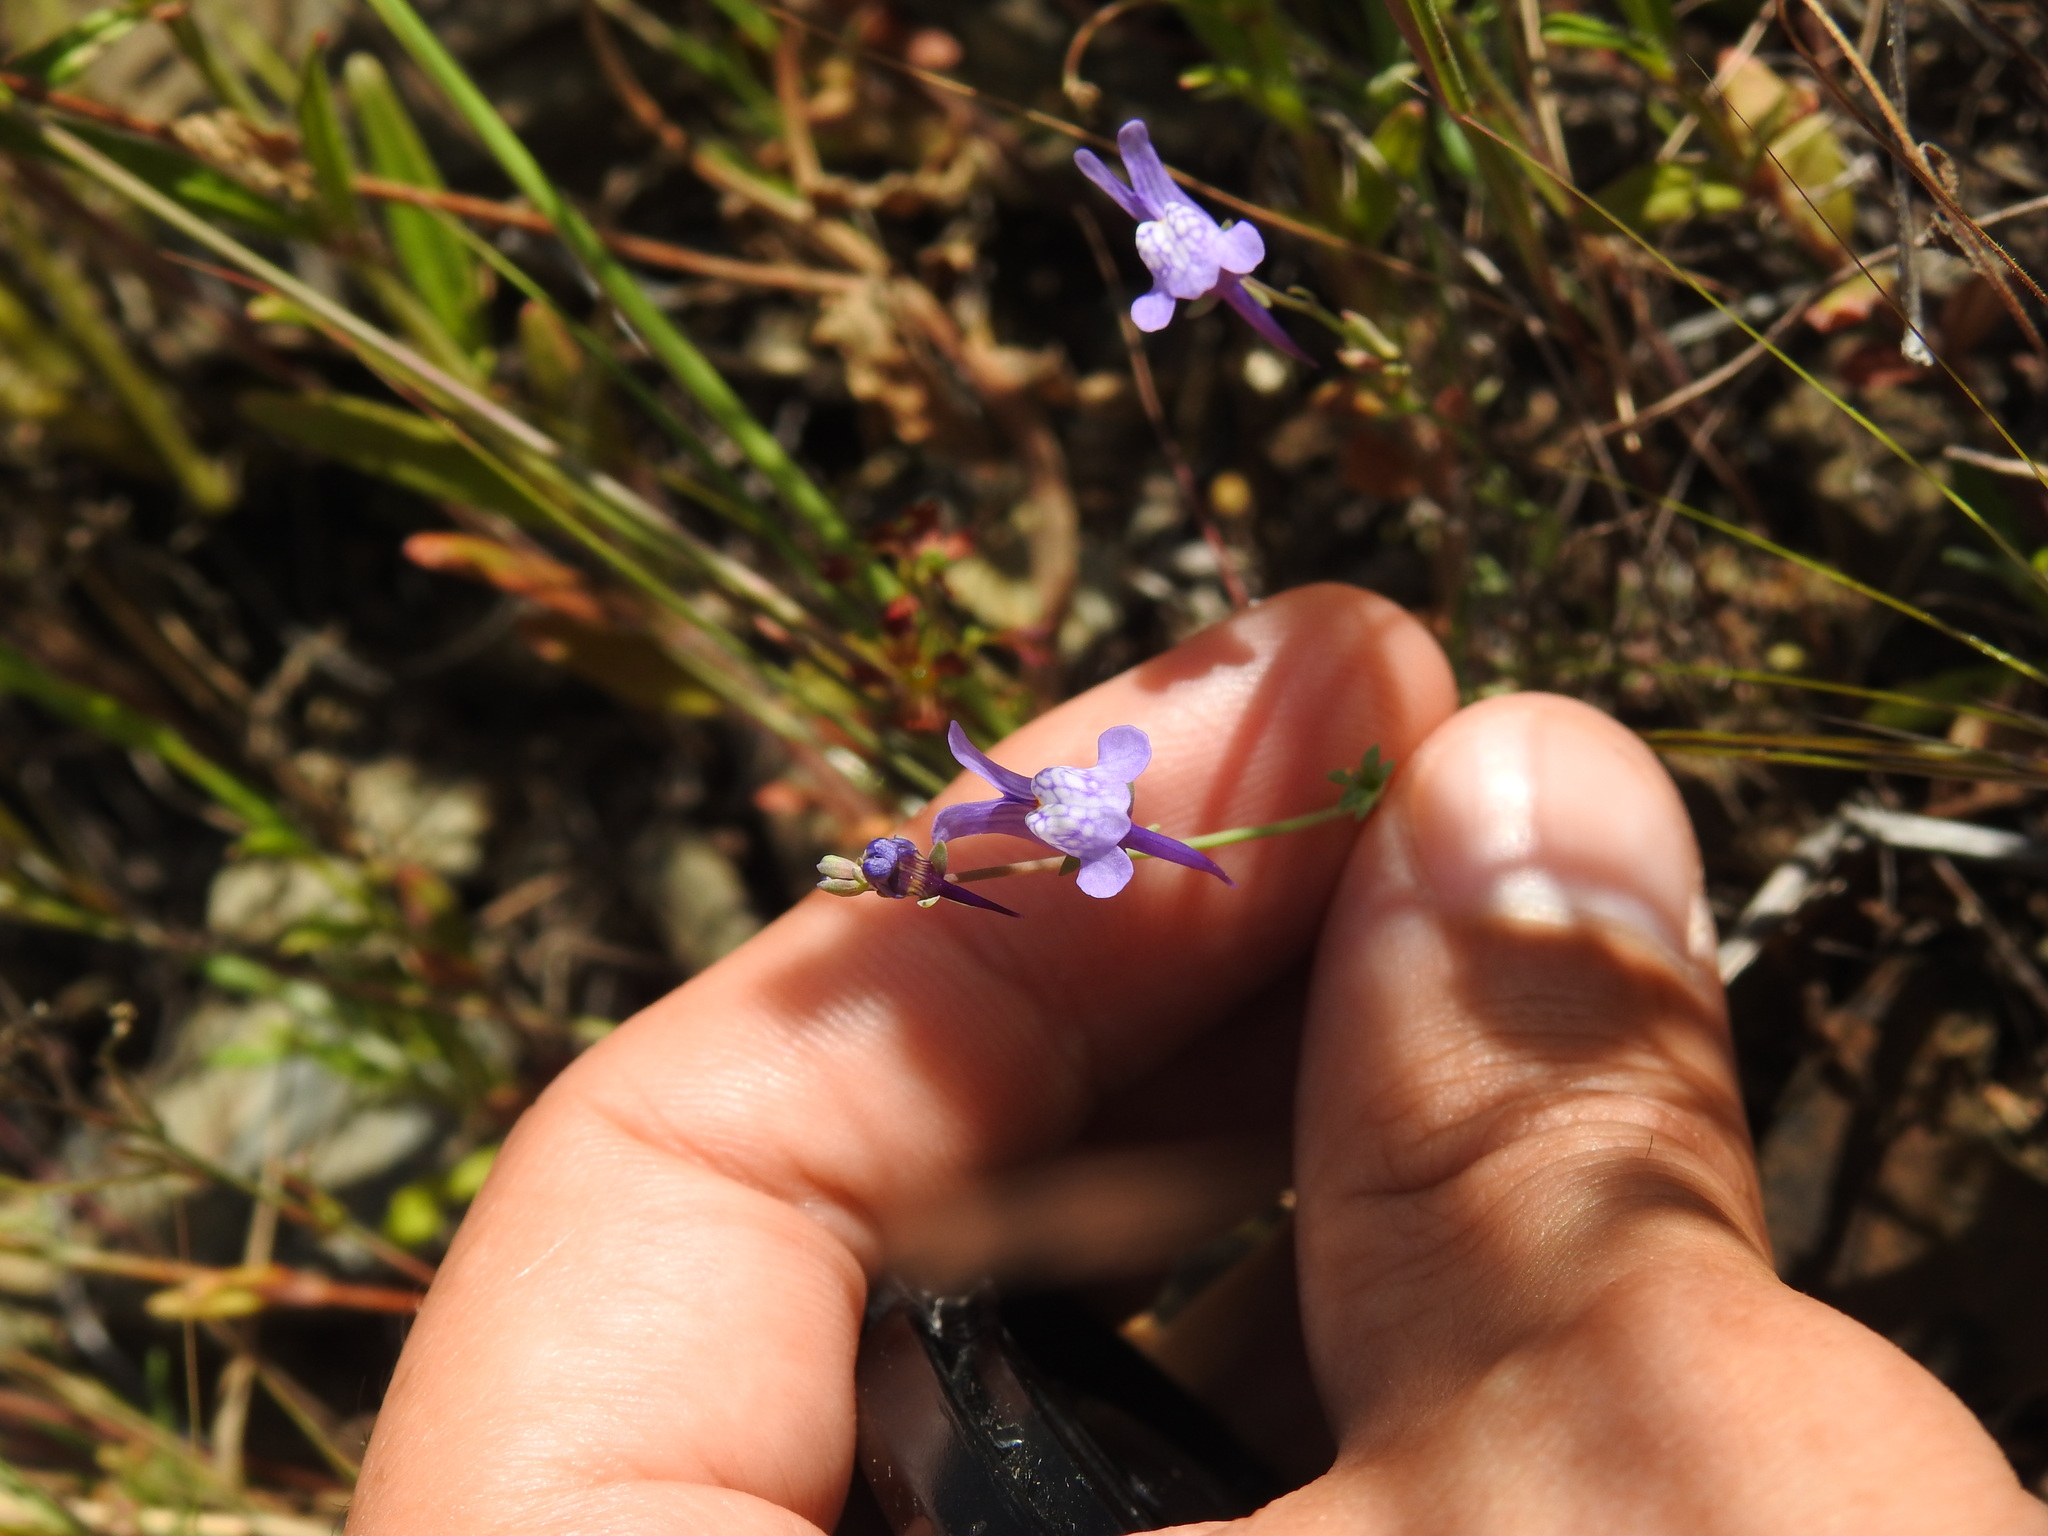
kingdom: Plantae
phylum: Tracheophyta
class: Magnoliopsida
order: Lamiales
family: Plantaginaceae
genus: Linaria
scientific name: Linaria pseudamethystea
